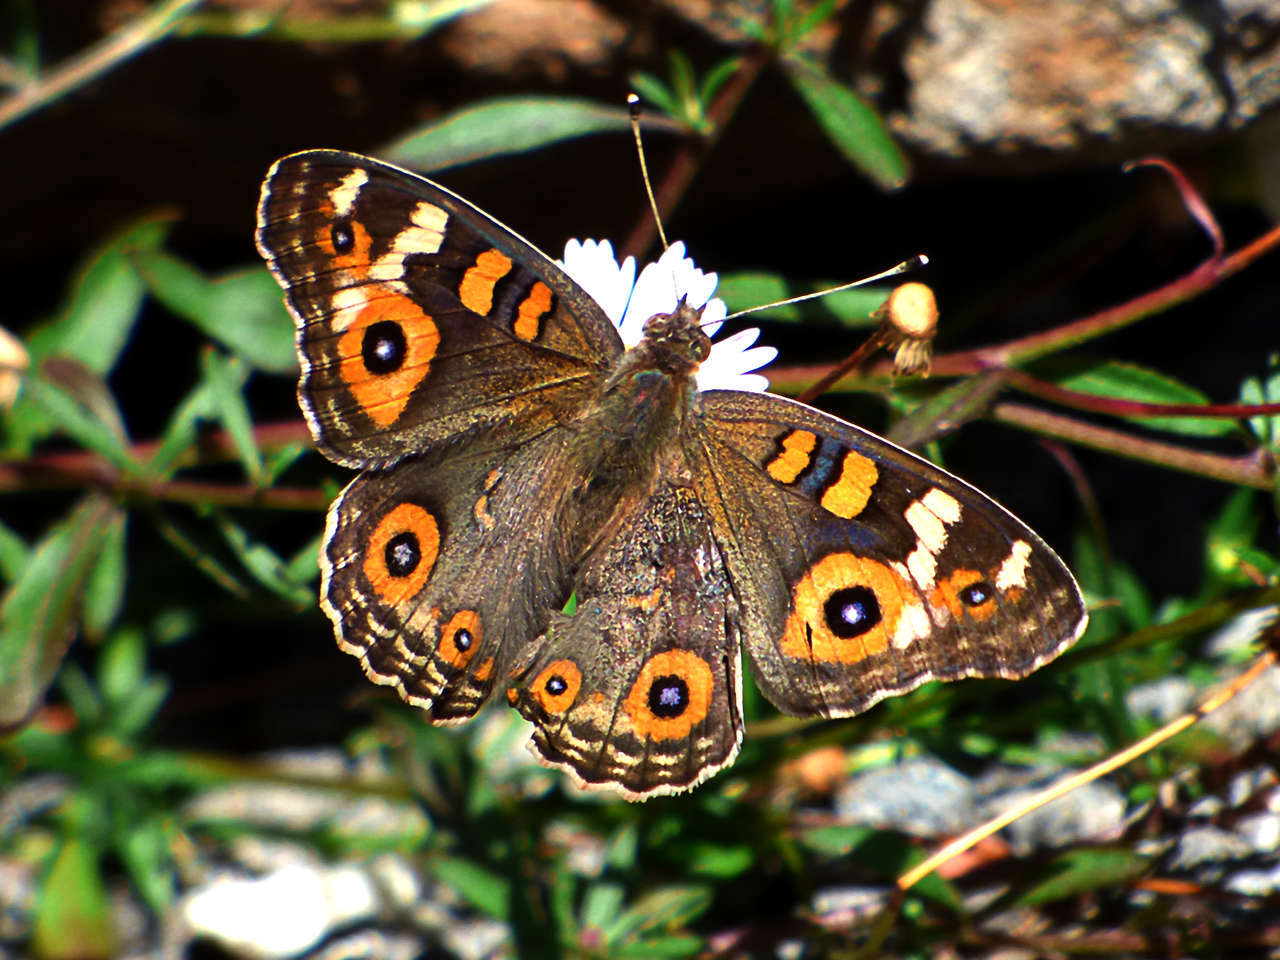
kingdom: Animalia
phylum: Arthropoda
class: Insecta
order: Lepidoptera
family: Nymphalidae
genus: Junonia
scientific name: Junonia villida
